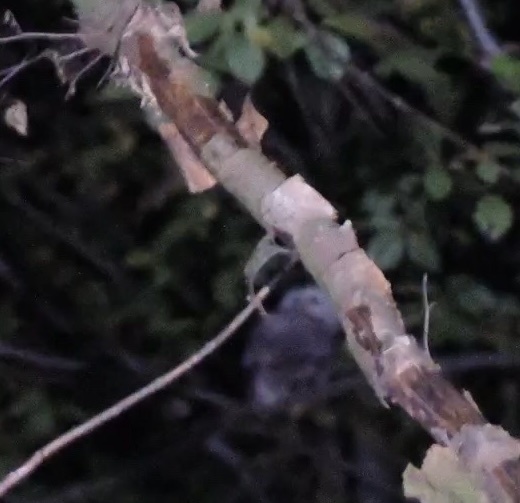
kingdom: Animalia
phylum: Chordata
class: Aves
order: Strigiformes
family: Strigidae
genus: Strix
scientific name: Strix aluco
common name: Tawny owl
